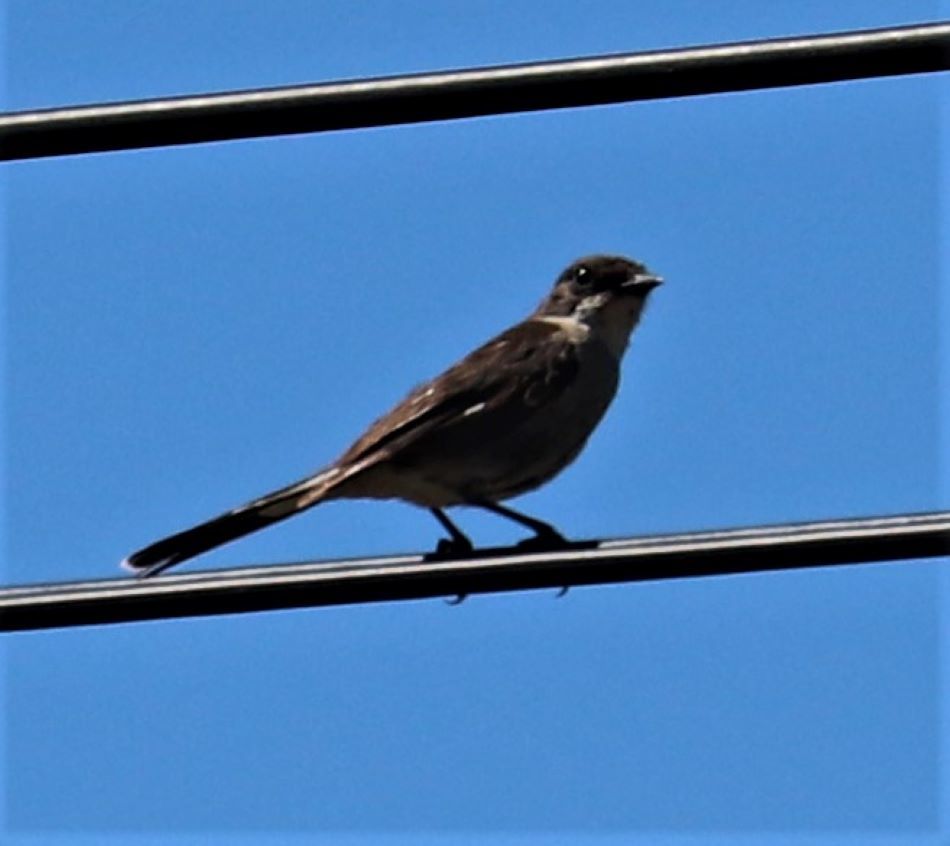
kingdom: Animalia
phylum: Chordata
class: Aves
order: Passeriformes
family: Muscicapidae
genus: Sigelus
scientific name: Sigelus silens
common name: Fiscal flycatcher
